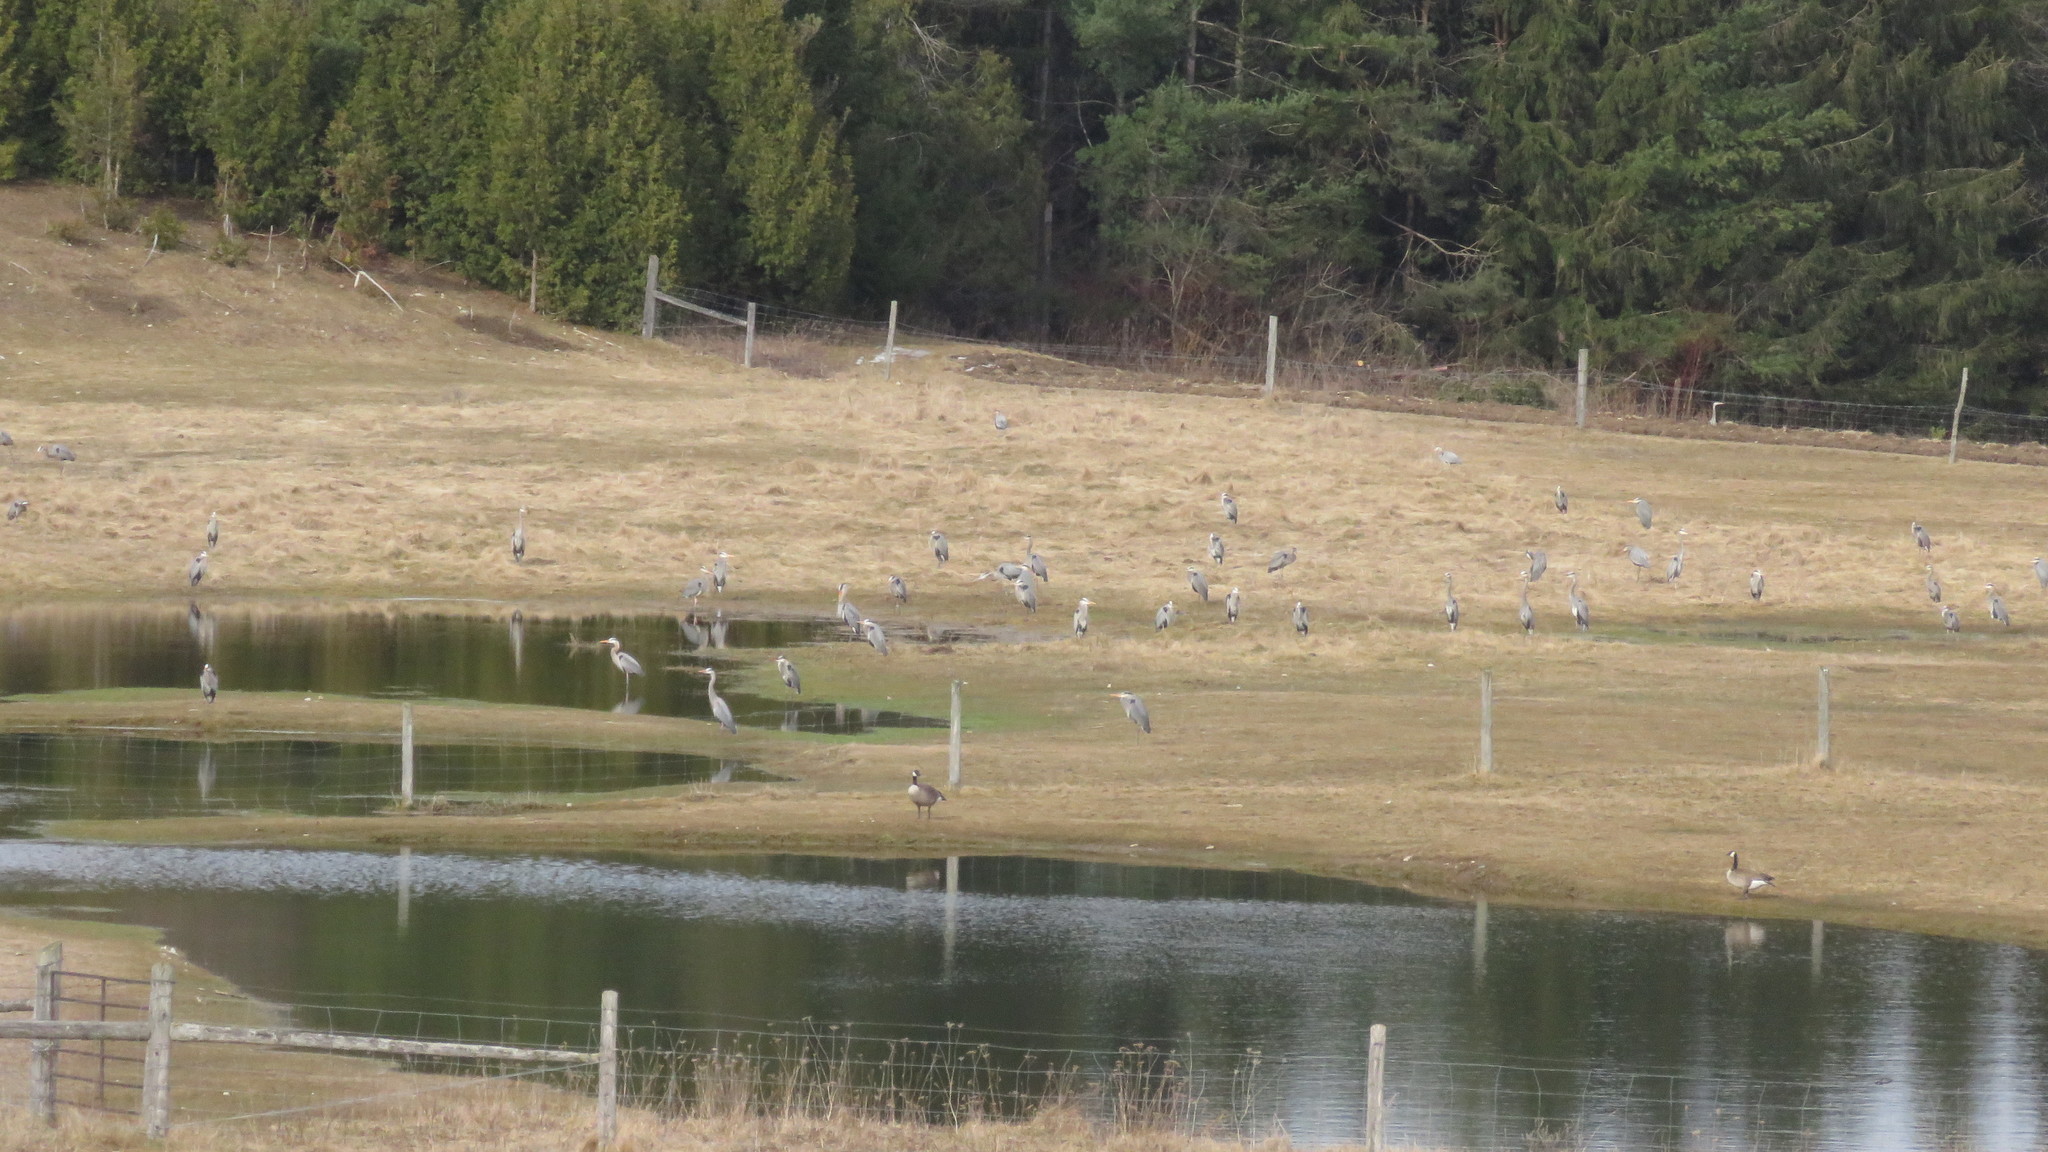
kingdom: Animalia
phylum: Chordata
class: Aves
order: Pelecaniformes
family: Ardeidae
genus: Ardea
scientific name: Ardea herodias
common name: Great blue heron
